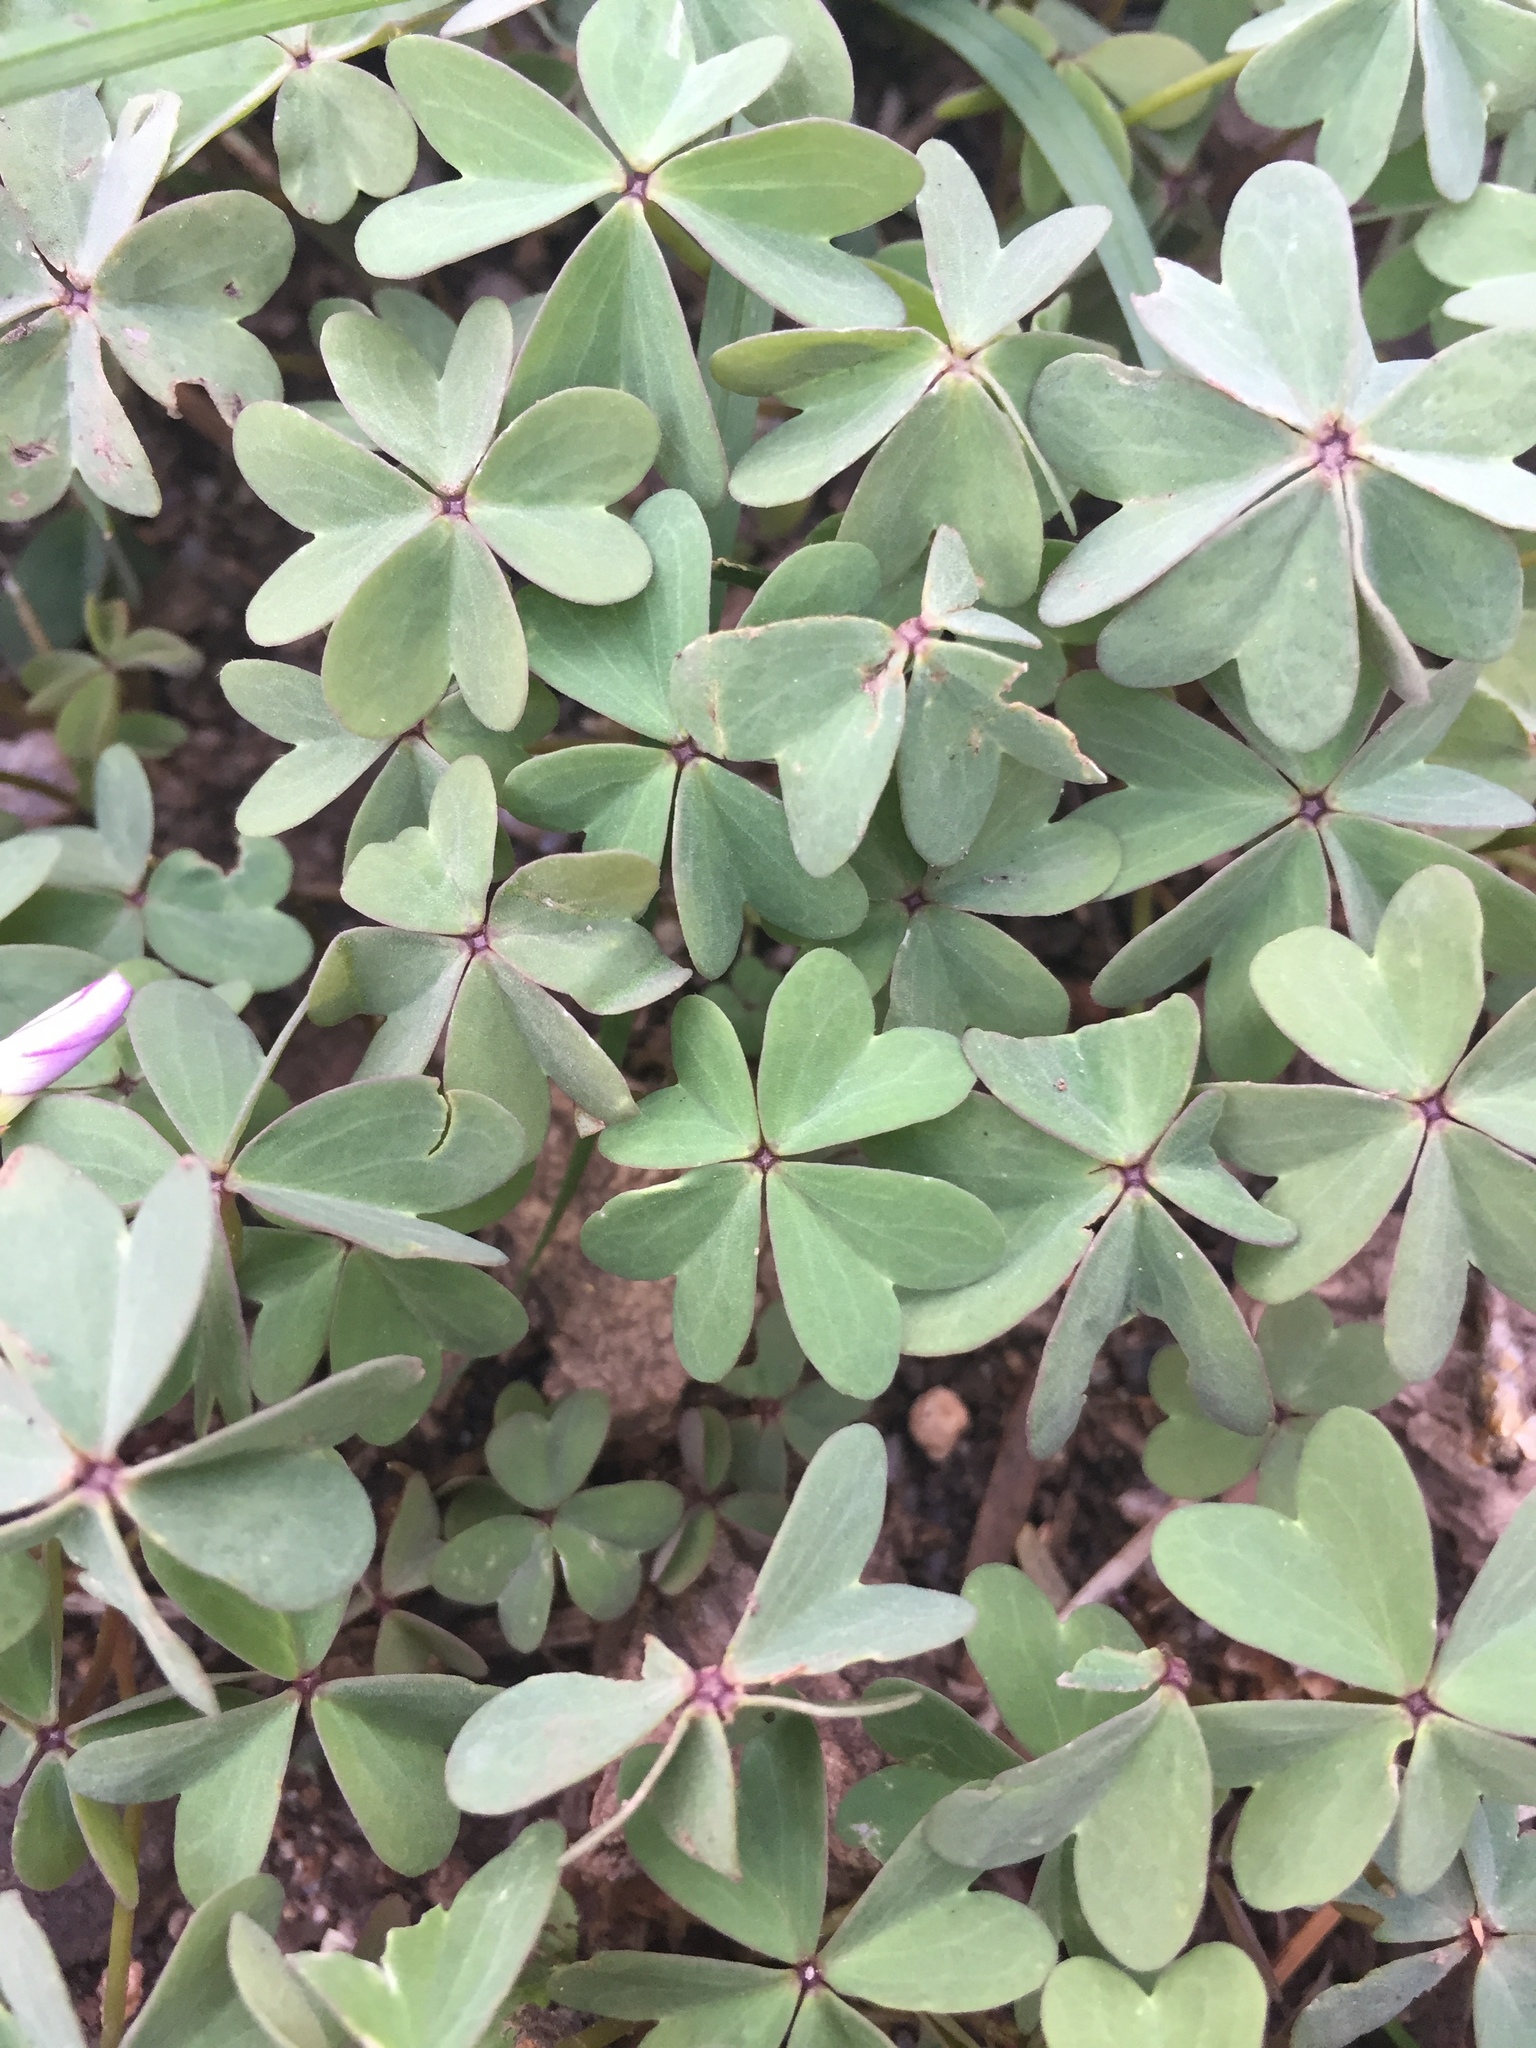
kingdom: Plantae
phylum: Tracheophyta
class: Magnoliopsida
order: Oxalidales
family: Oxalidaceae
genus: Oxalis
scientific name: Oxalis caerulea
